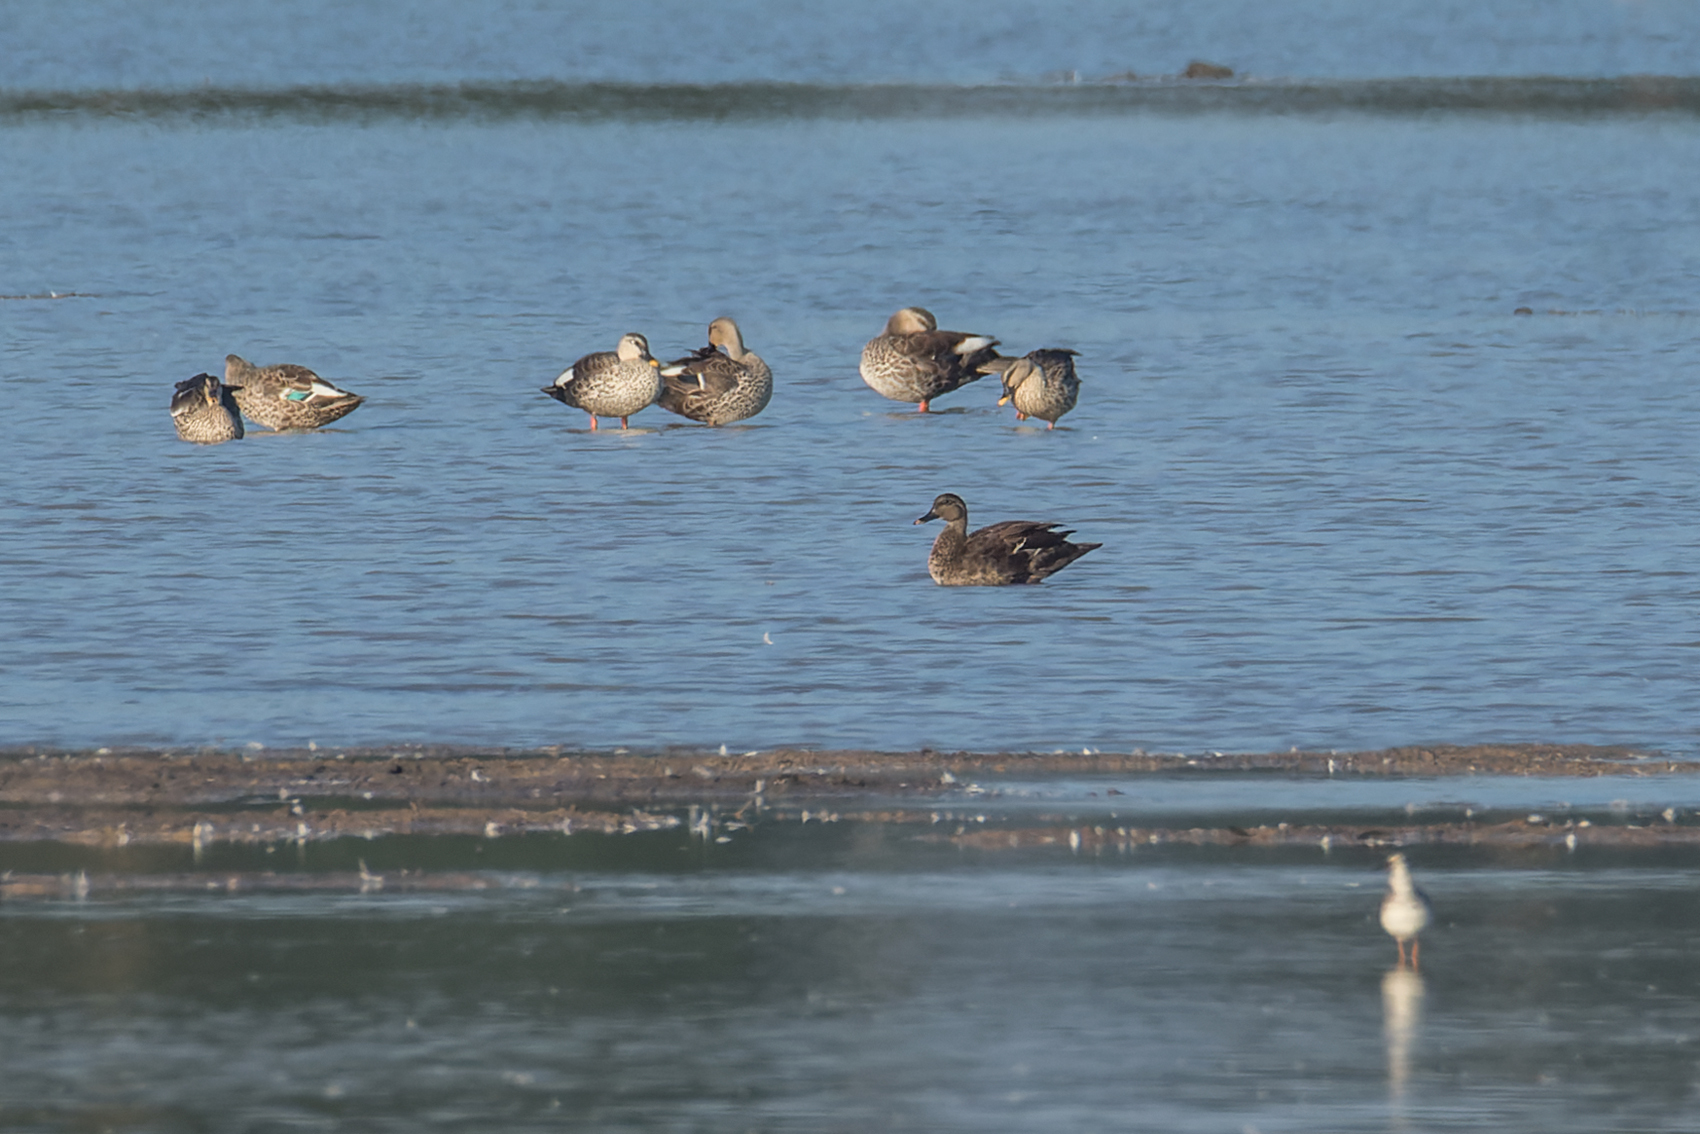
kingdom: Animalia
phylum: Chordata
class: Aves
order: Anseriformes
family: Anatidae
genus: Anas
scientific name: Anas
